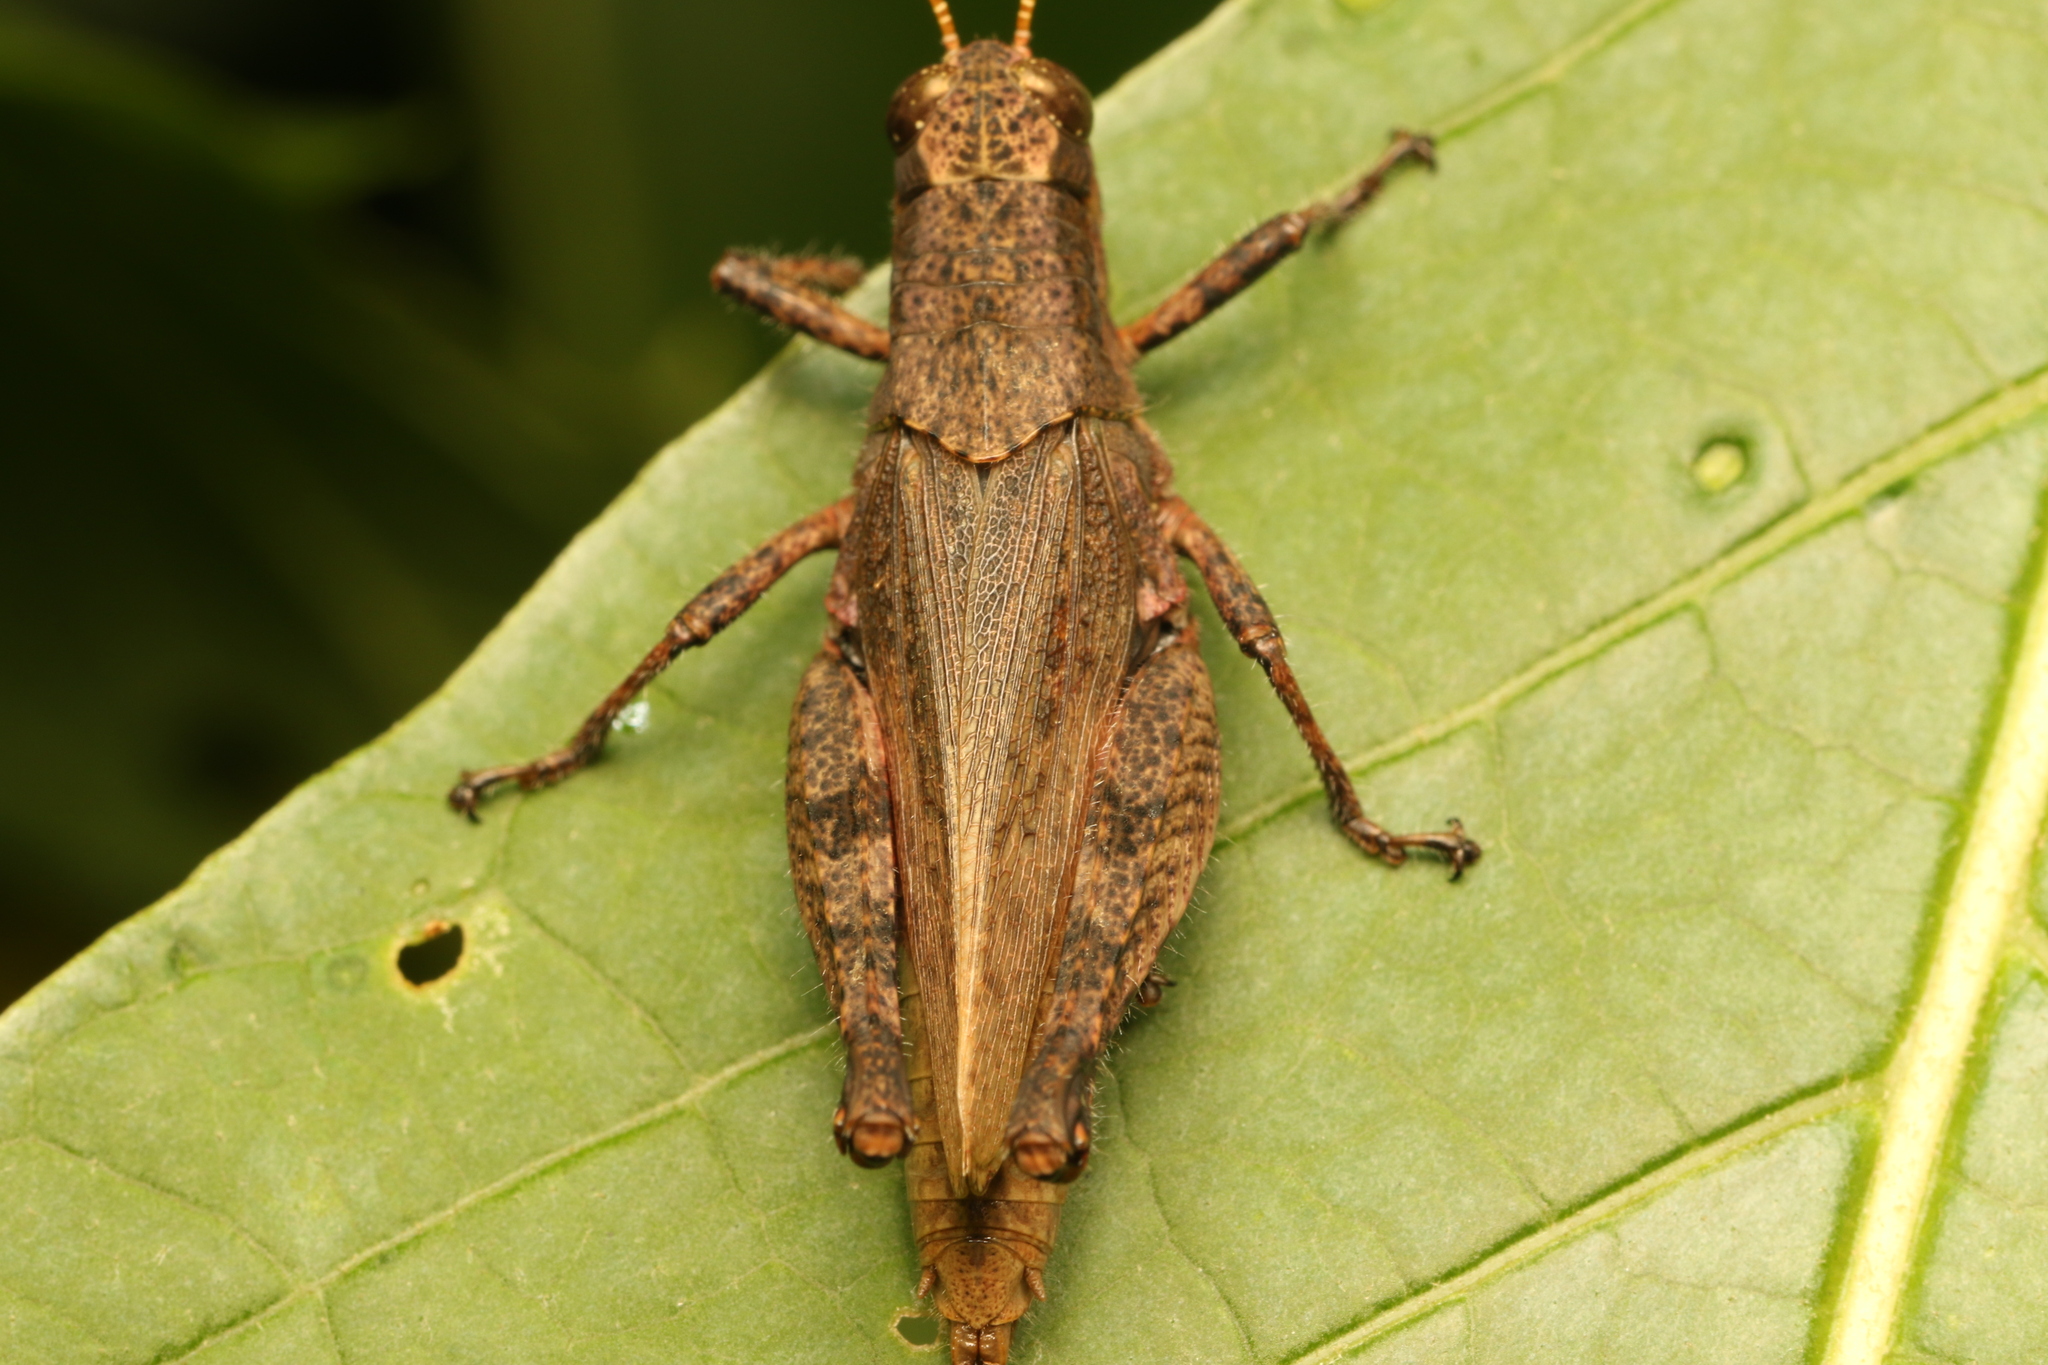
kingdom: Animalia
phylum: Arthropoda
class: Insecta
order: Orthoptera
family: Acrididae
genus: Ronderosia
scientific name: Ronderosia bergii
